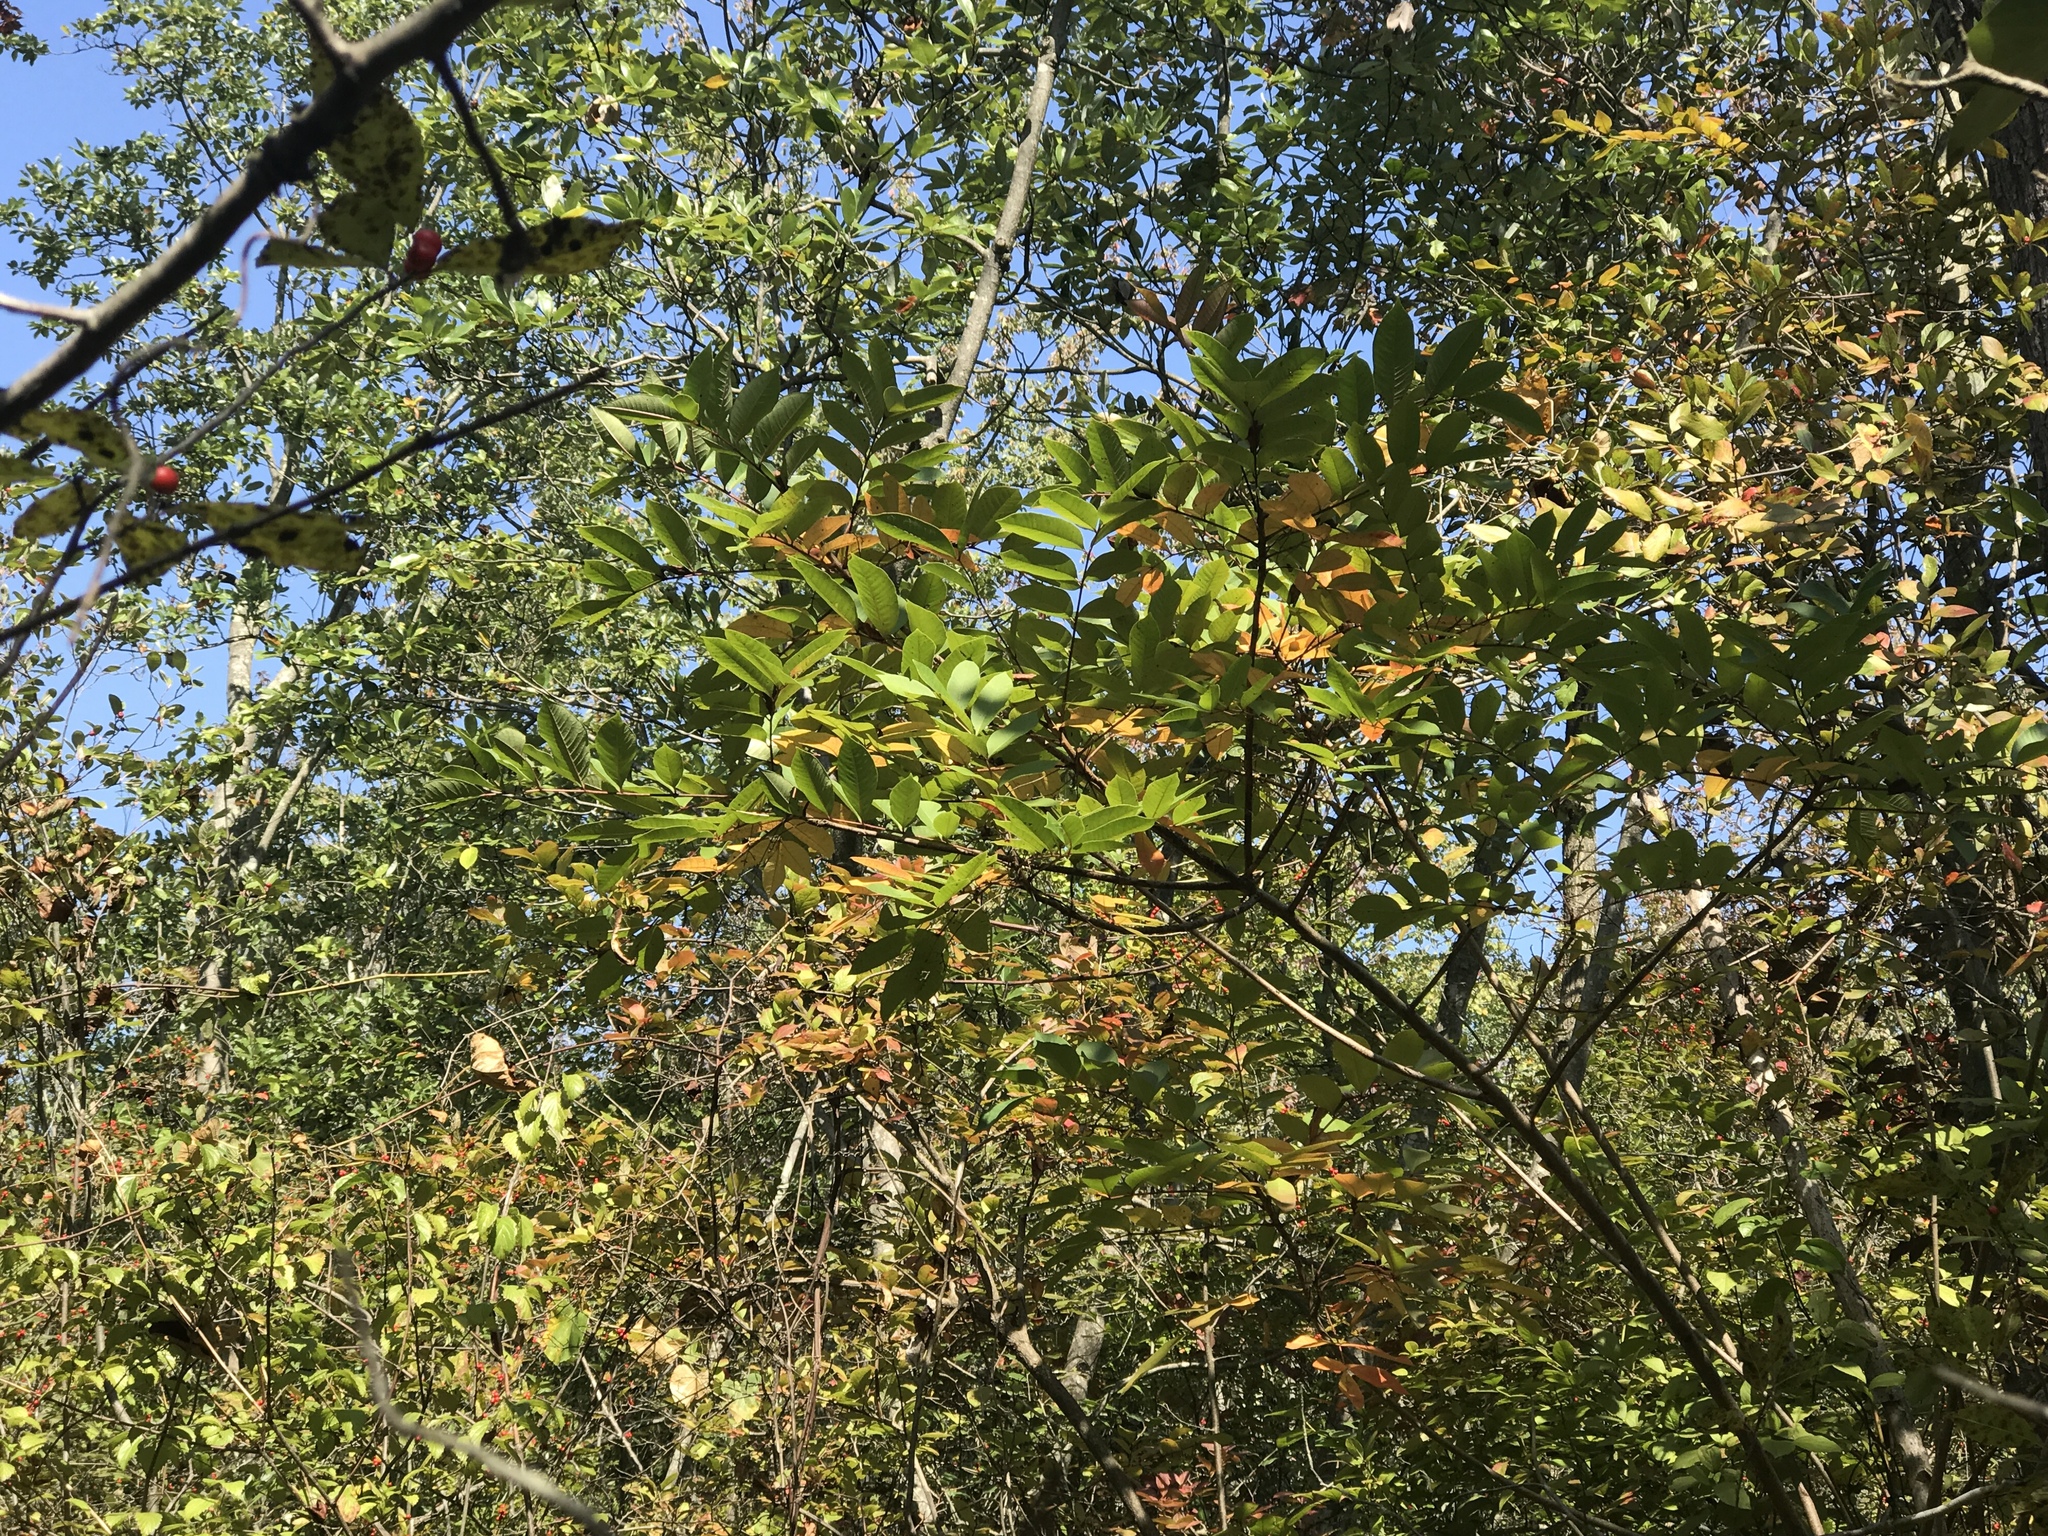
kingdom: Plantae
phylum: Tracheophyta
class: Magnoliopsida
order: Sapindales
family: Anacardiaceae
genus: Toxicodendron
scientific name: Toxicodendron vernix
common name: Poison sumac
